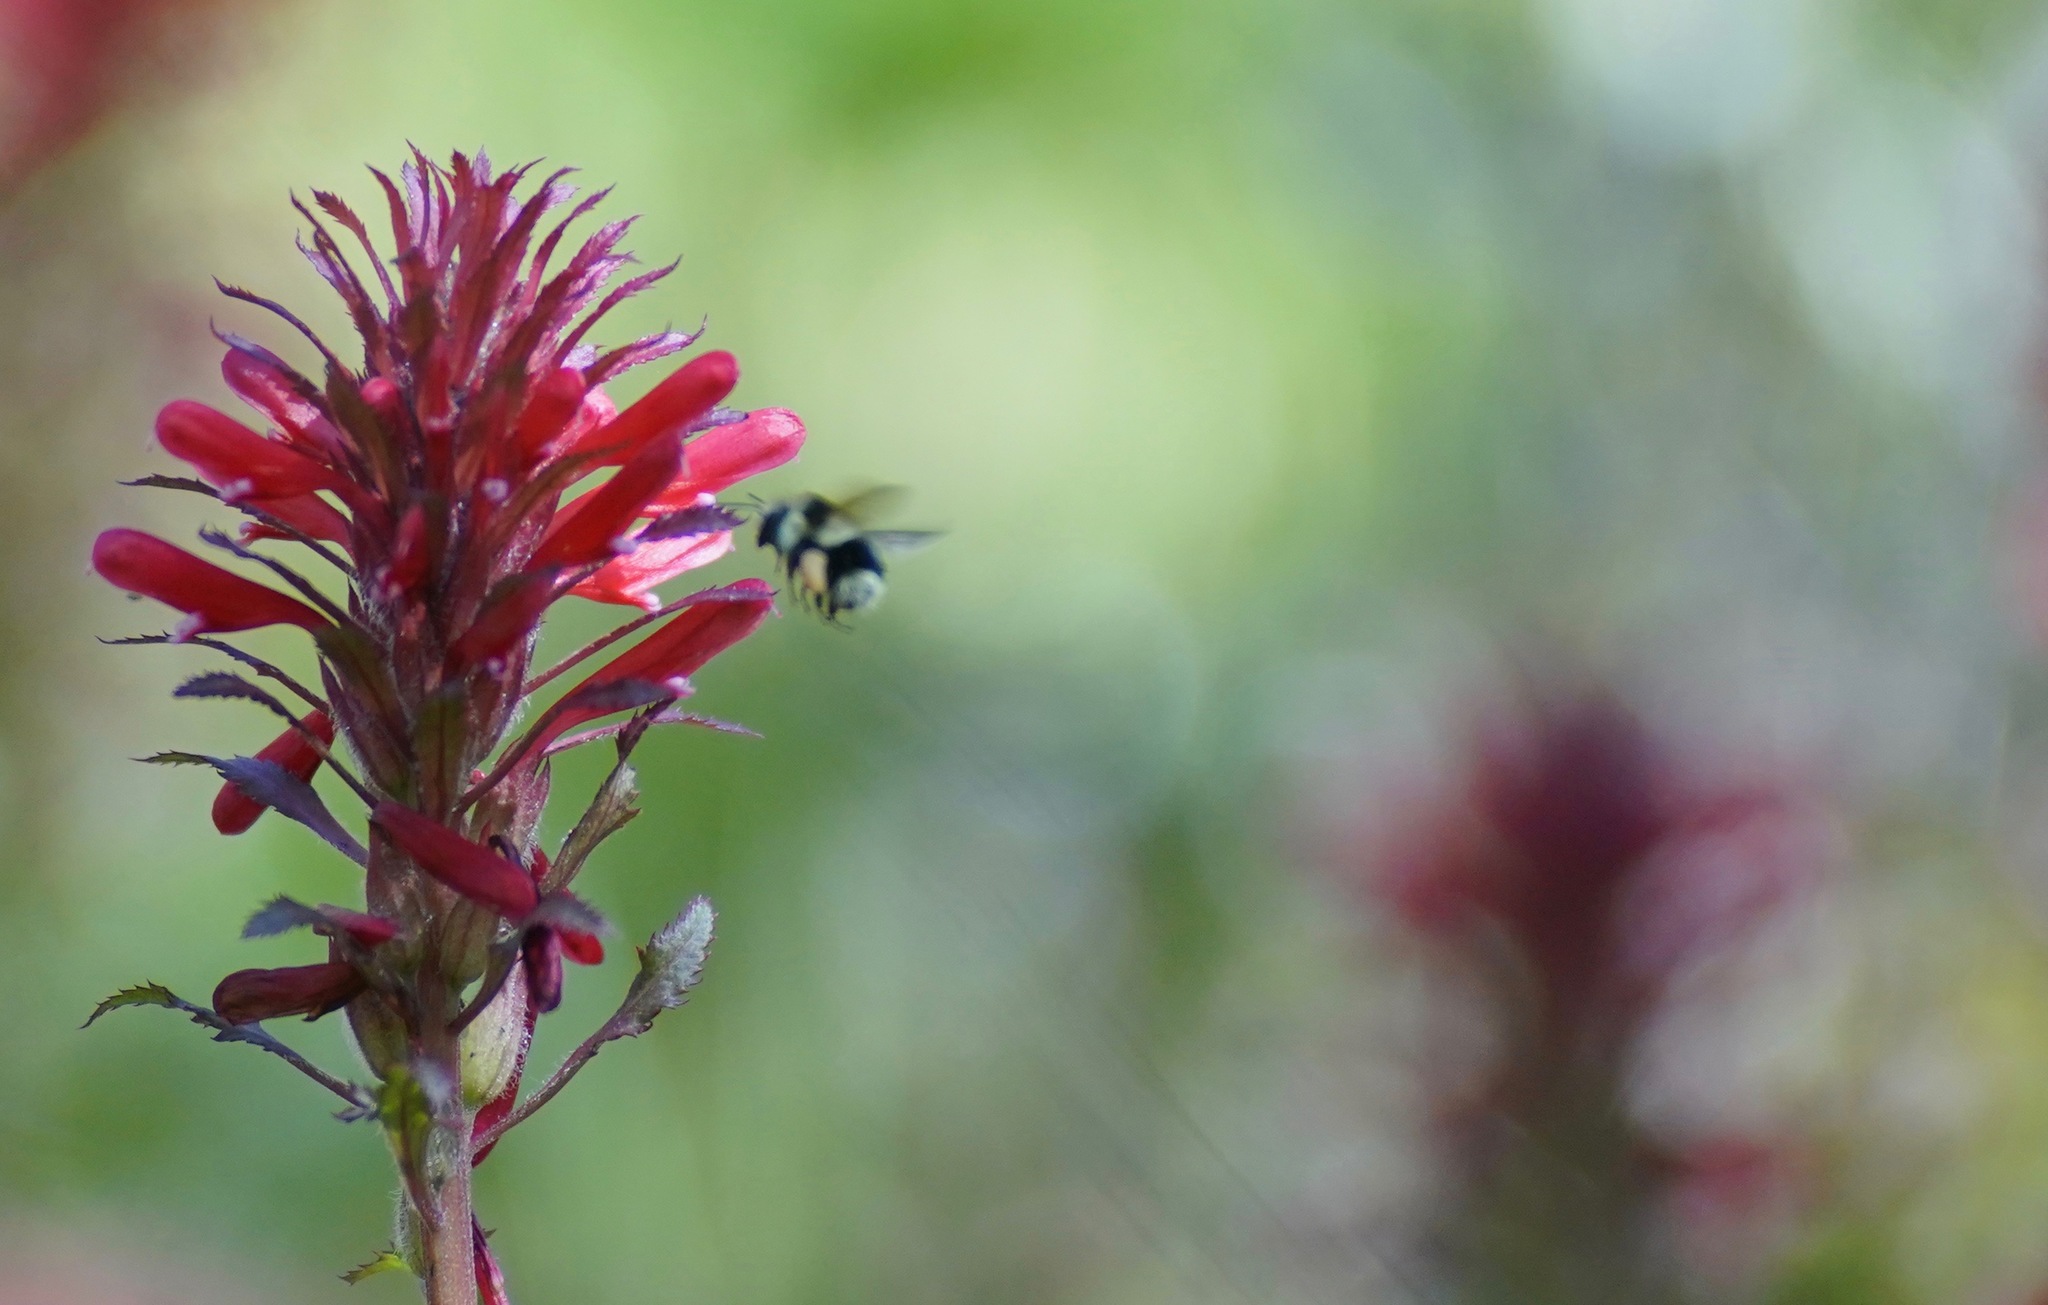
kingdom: Animalia
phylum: Arthropoda
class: Insecta
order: Hymenoptera
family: Apidae
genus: Bombus
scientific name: Bombus melanopygus
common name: Black tail bumble bee
